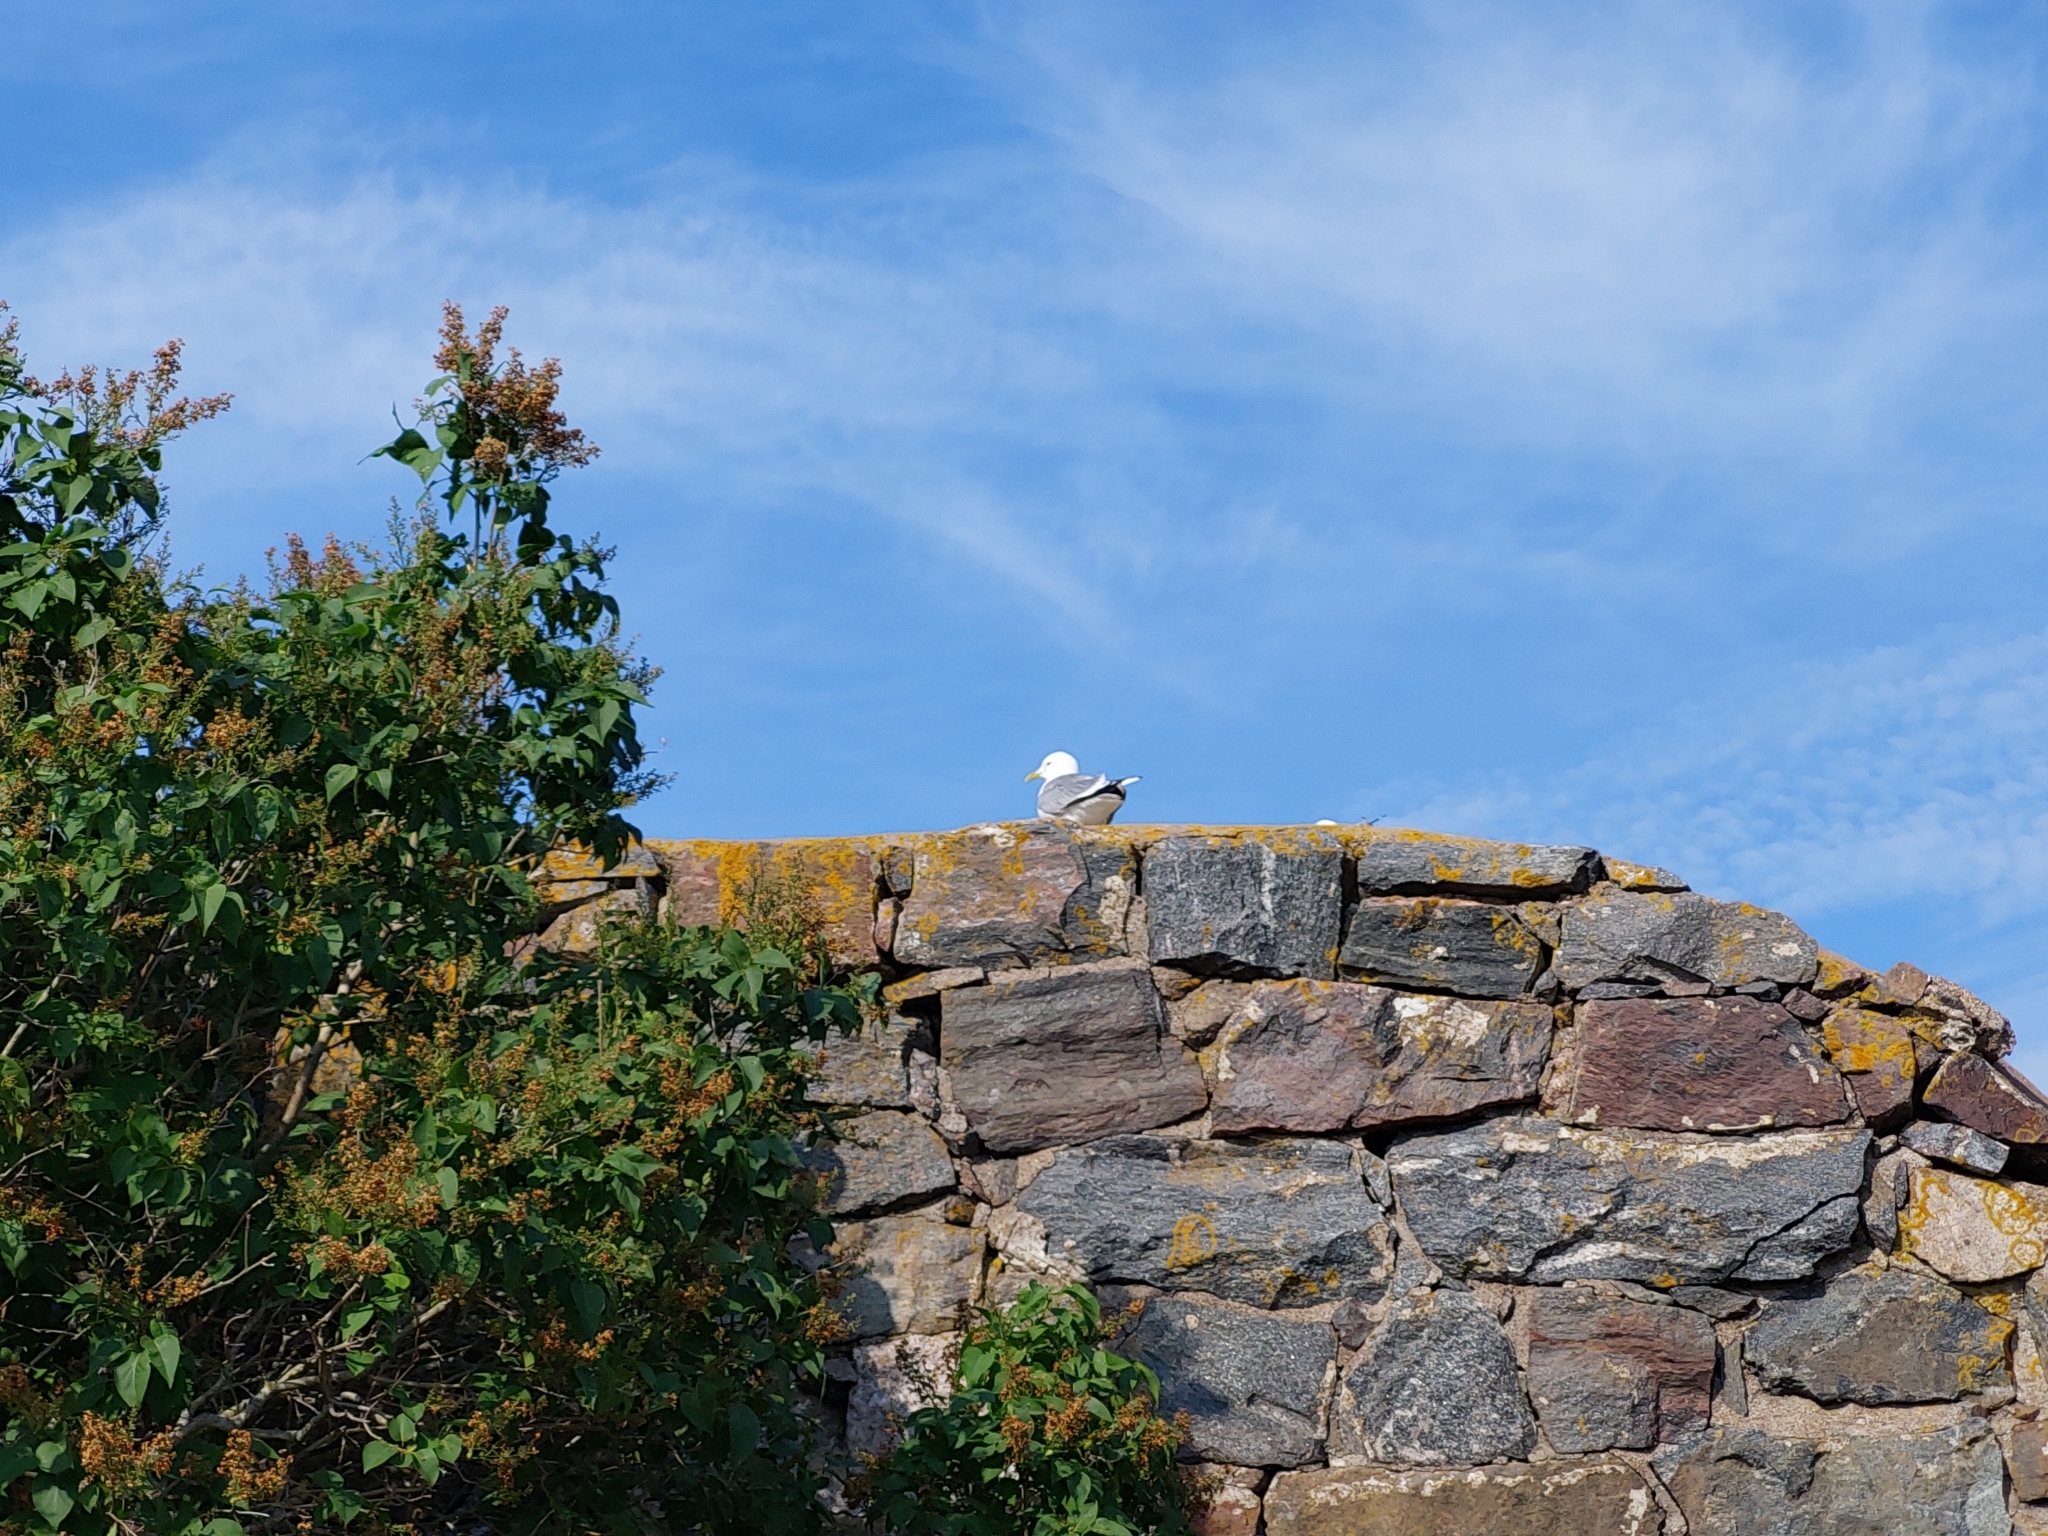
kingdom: Animalia
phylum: Chordata
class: Aves
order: Charadriiformes
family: Laridae
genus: Larus
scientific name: Larus canus
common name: Mew gull
